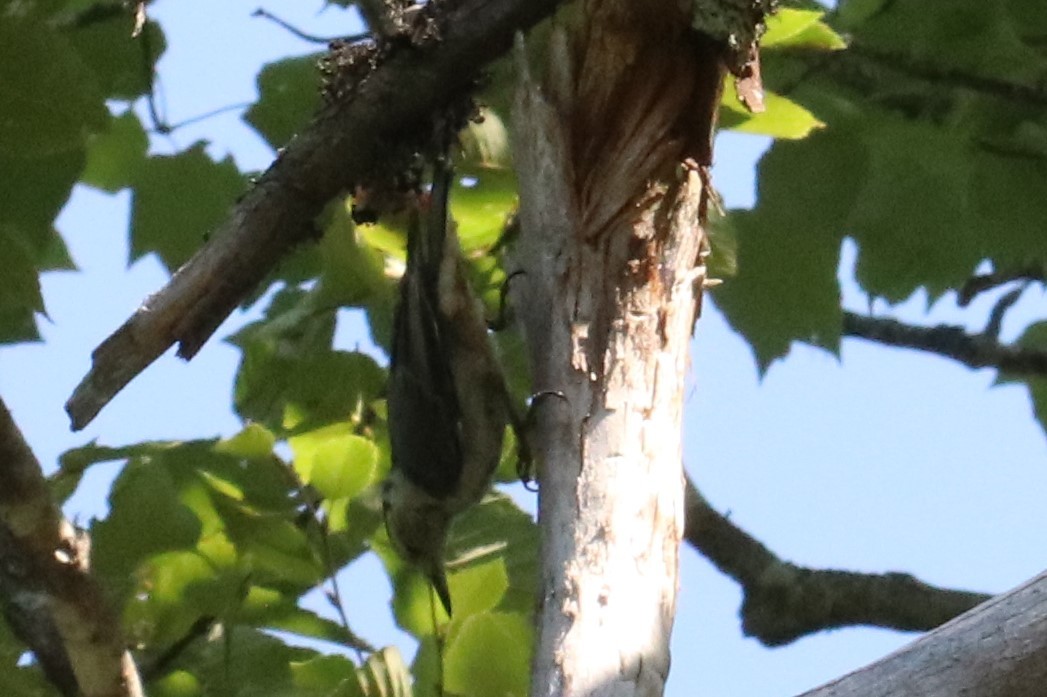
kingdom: Animalia
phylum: Chordata
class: Aves
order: Passeriformes
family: Sittidae
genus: Sitta
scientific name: Sitta carolinensis
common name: White-breasted nuthatch
